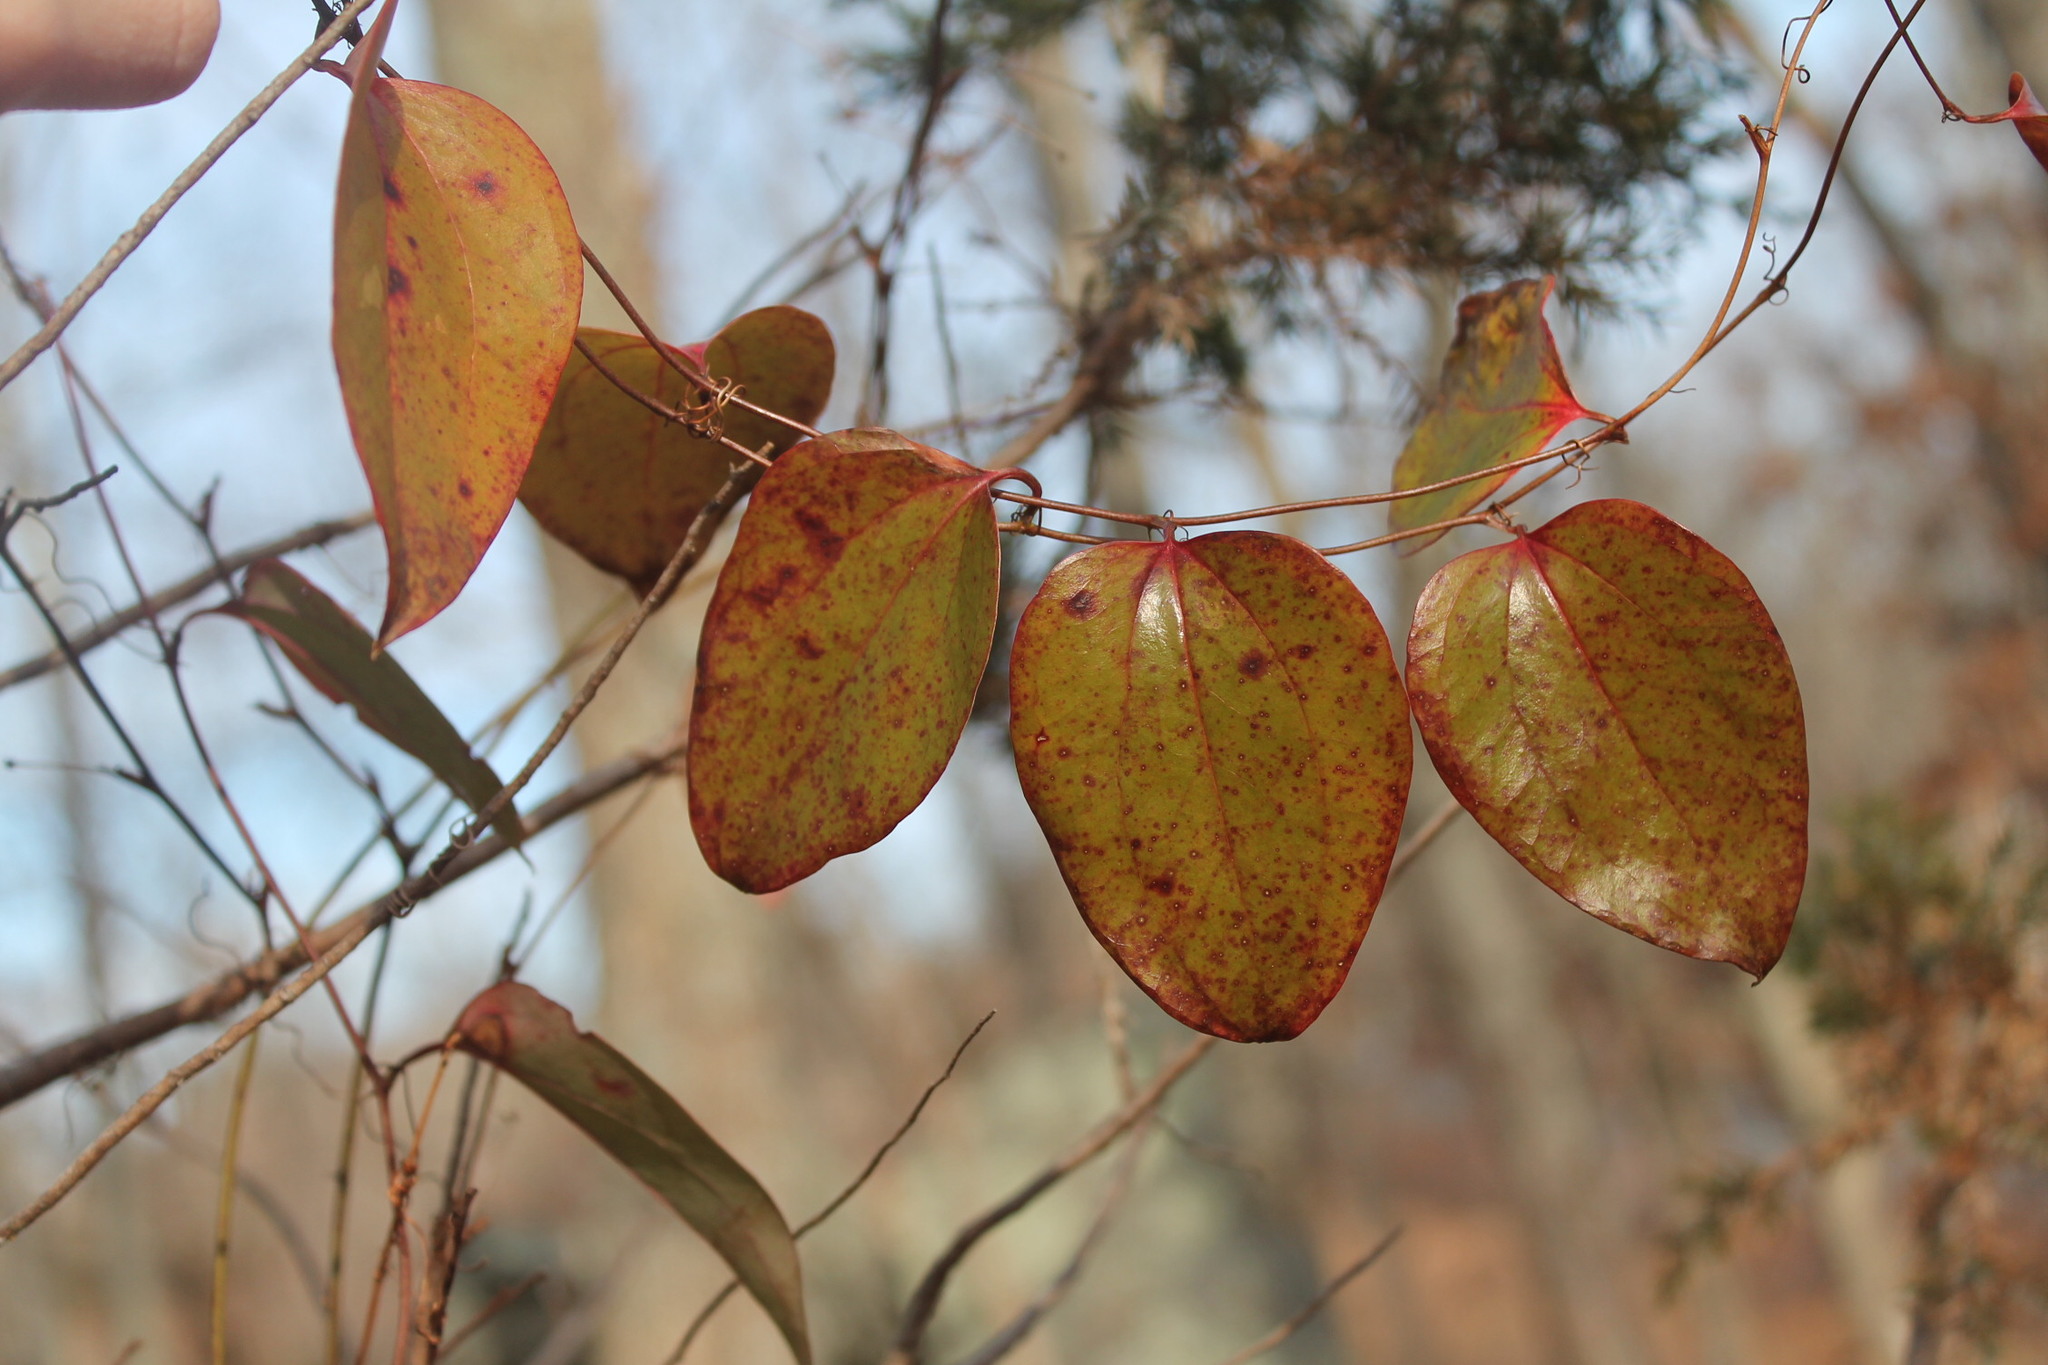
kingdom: Plantae
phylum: Tracheophyta
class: Liliopsida
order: Liliales
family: Smilacaceae
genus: Smilax
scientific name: Smilax glauca
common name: Cat greenbrier
